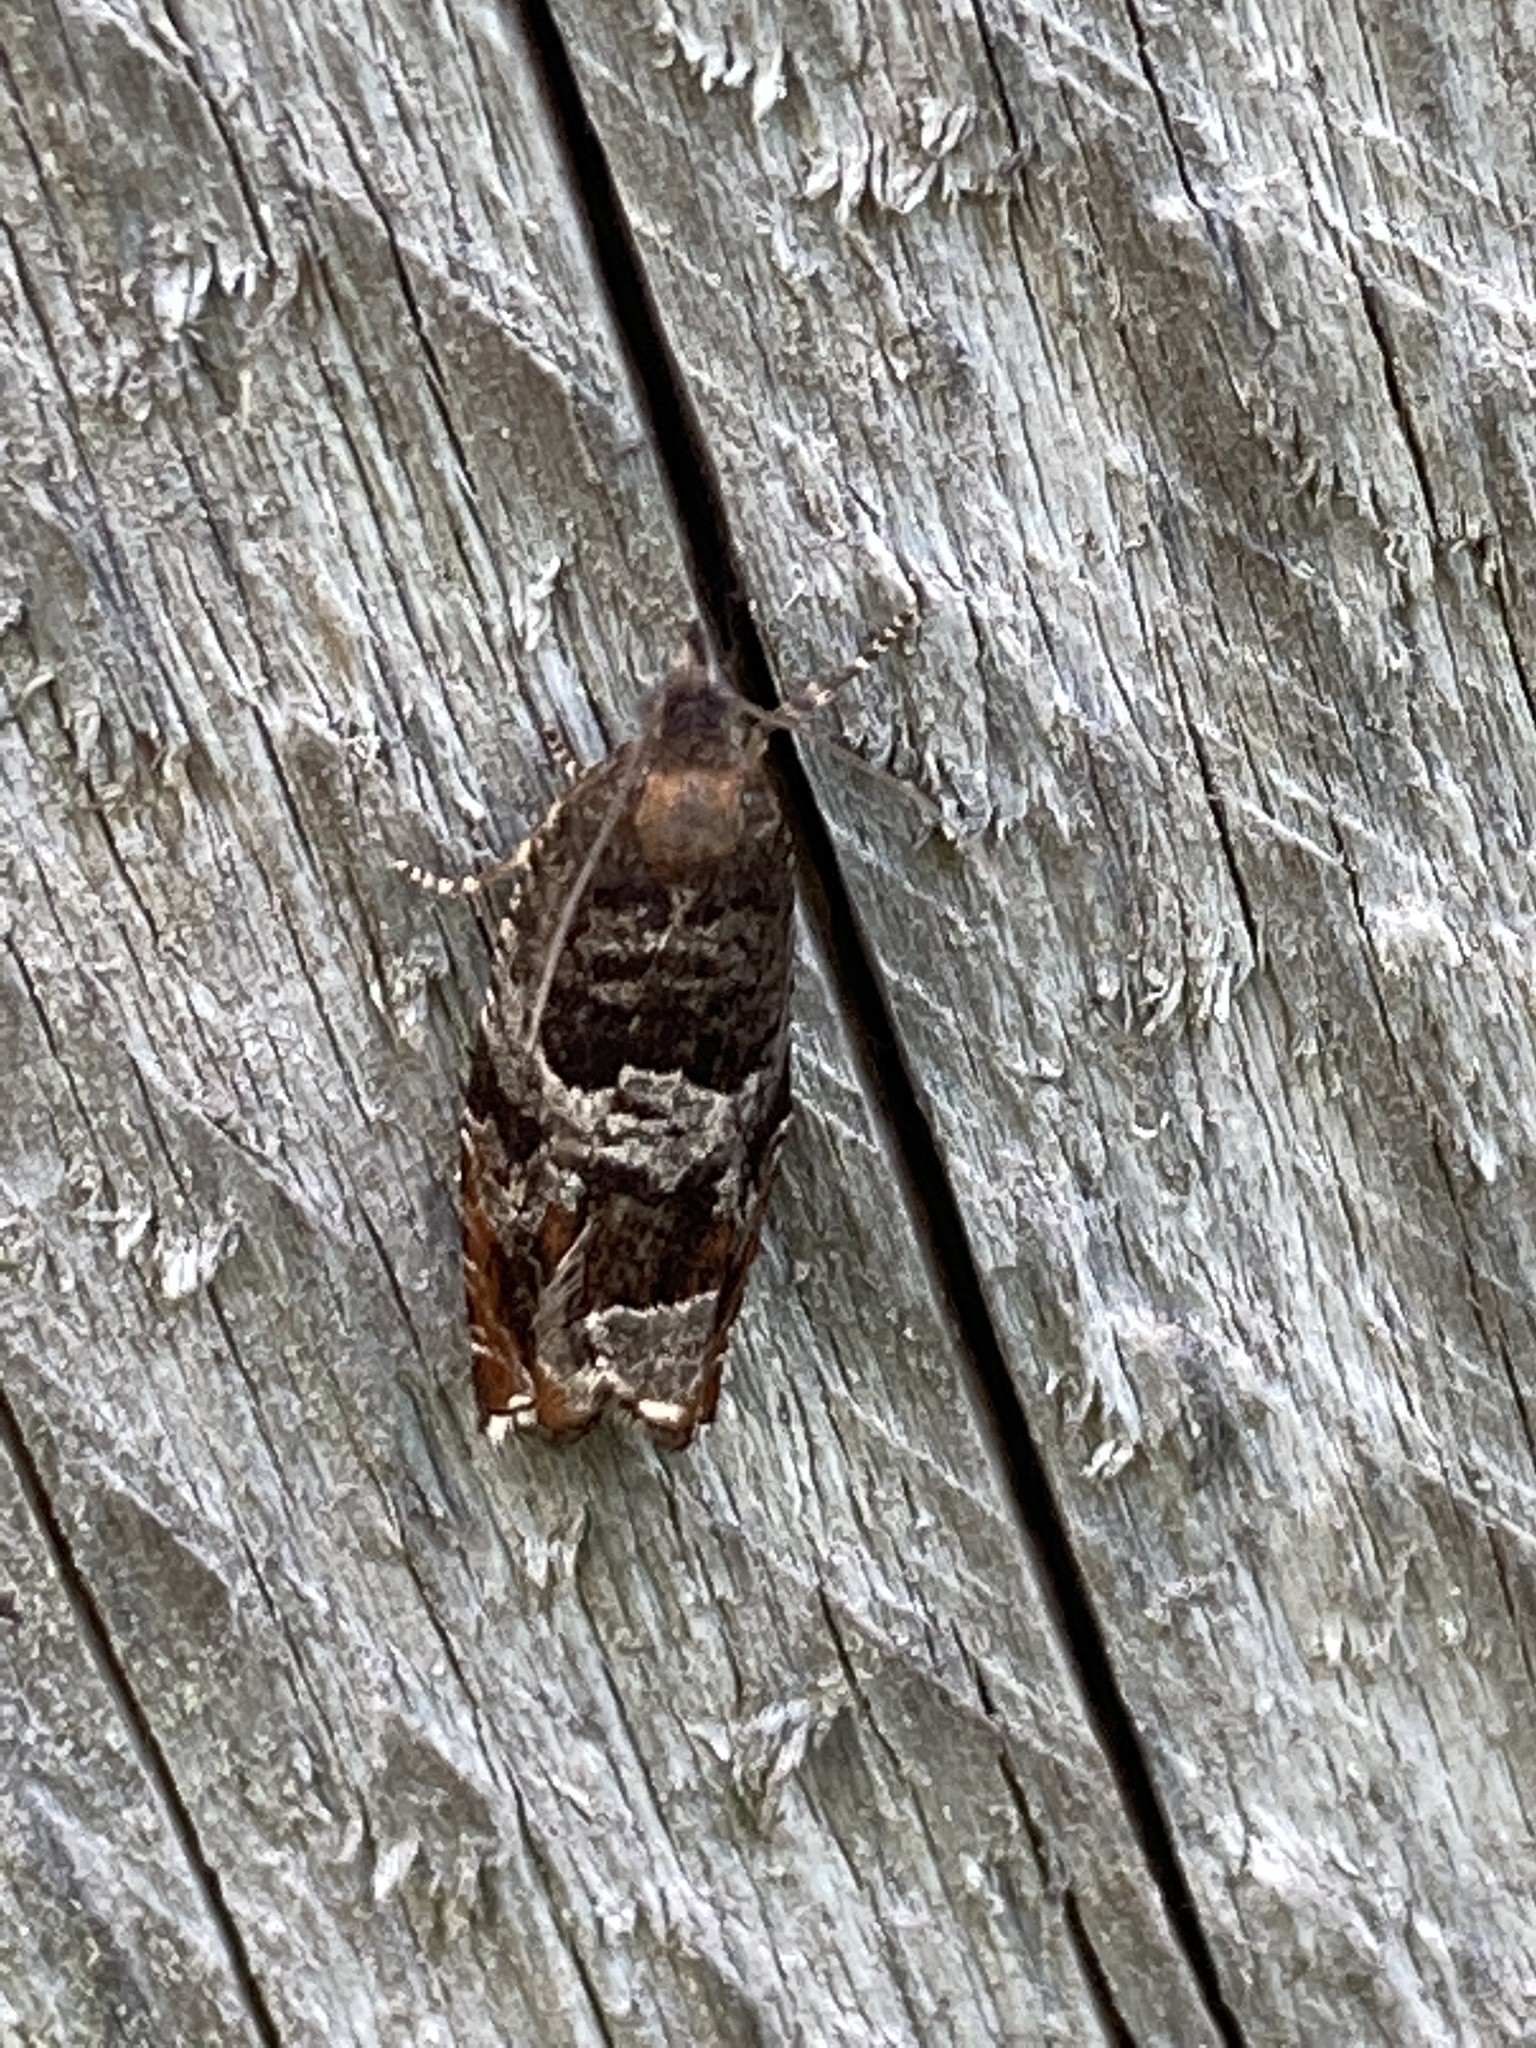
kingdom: Animalia
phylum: Arthropoda
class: Insecta
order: Lepidoptera
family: Tortricidae
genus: Ancylis
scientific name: Ancylis achatana
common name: Triangle-marked roller
